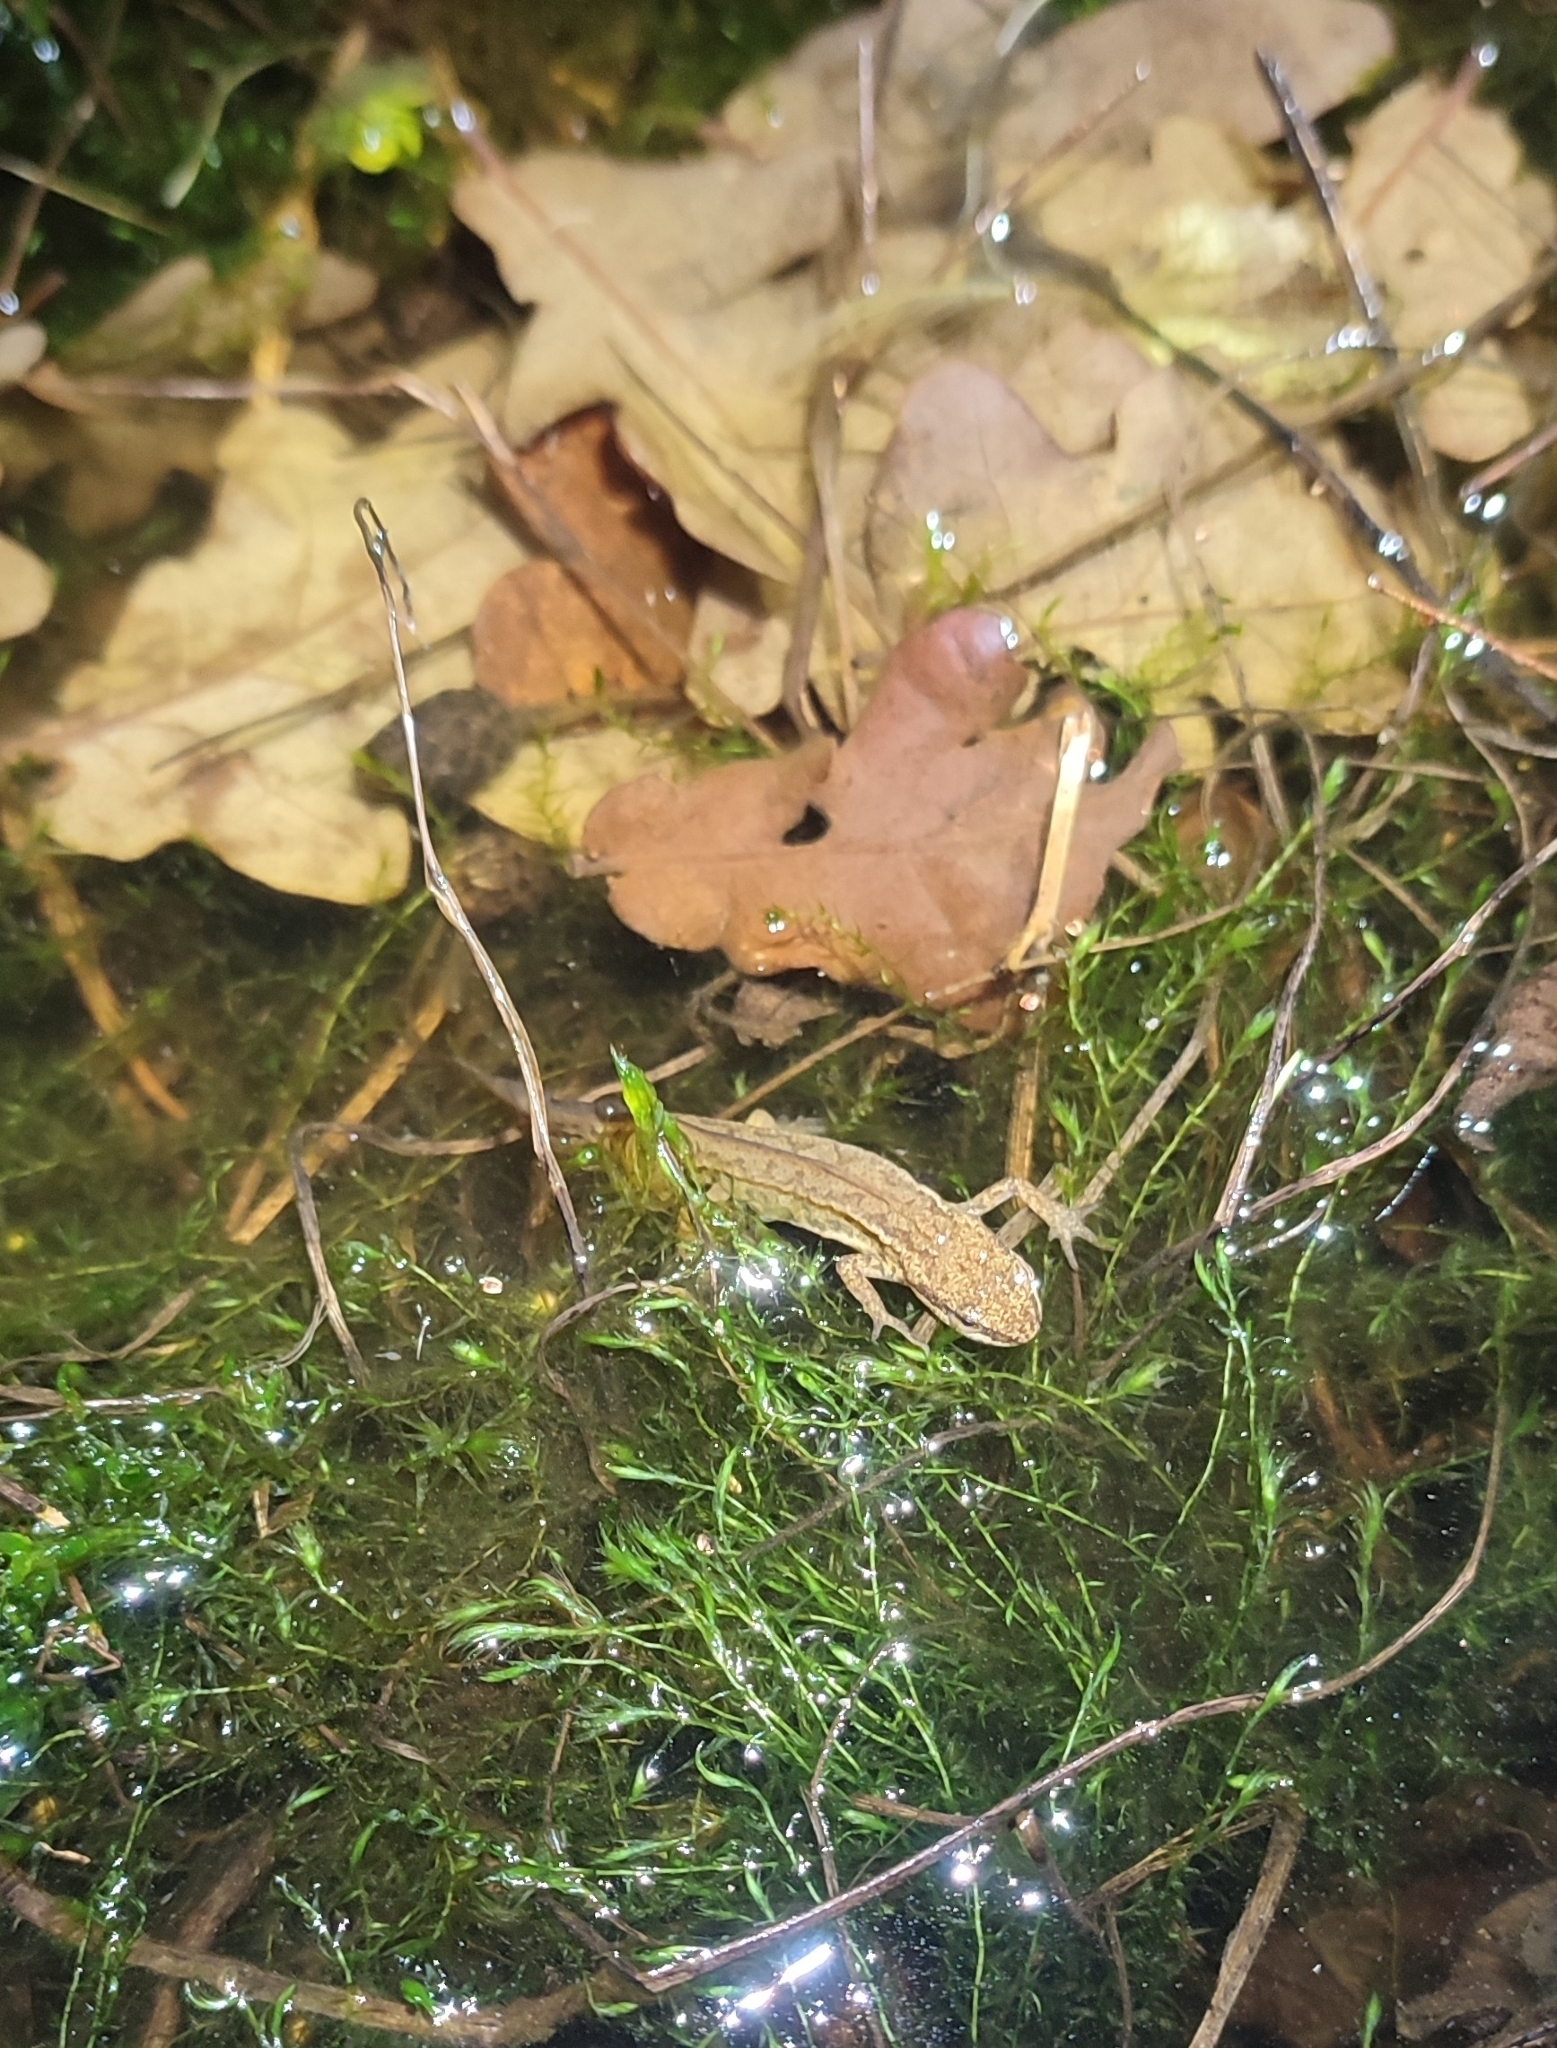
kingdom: Animalia
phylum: Chordata
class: Amphibia
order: Caudata
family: Salamandridae
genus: Lissotriton
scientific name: Lissotriton helveticus
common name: Palmate newt
